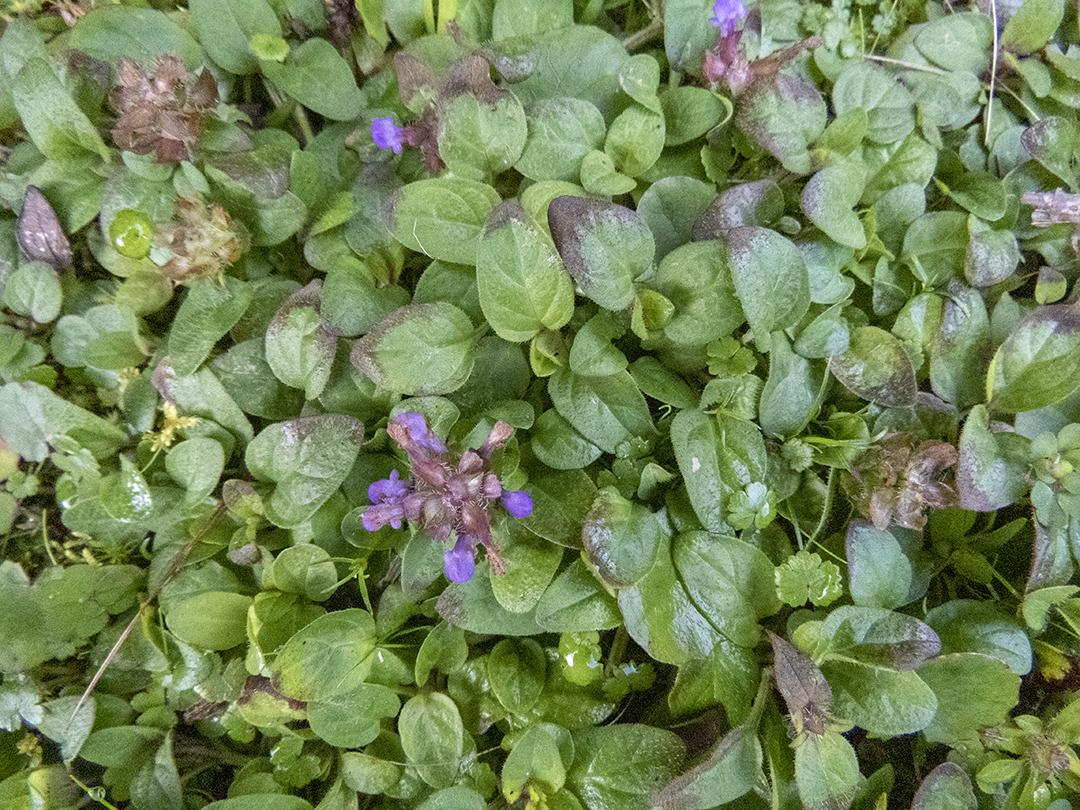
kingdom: Plantae
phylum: Tracheophyta
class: Magnoliopsida
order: Lamiales
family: Lamiaceae
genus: Prunella
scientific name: Prunella vulgaris
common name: Heal-all
